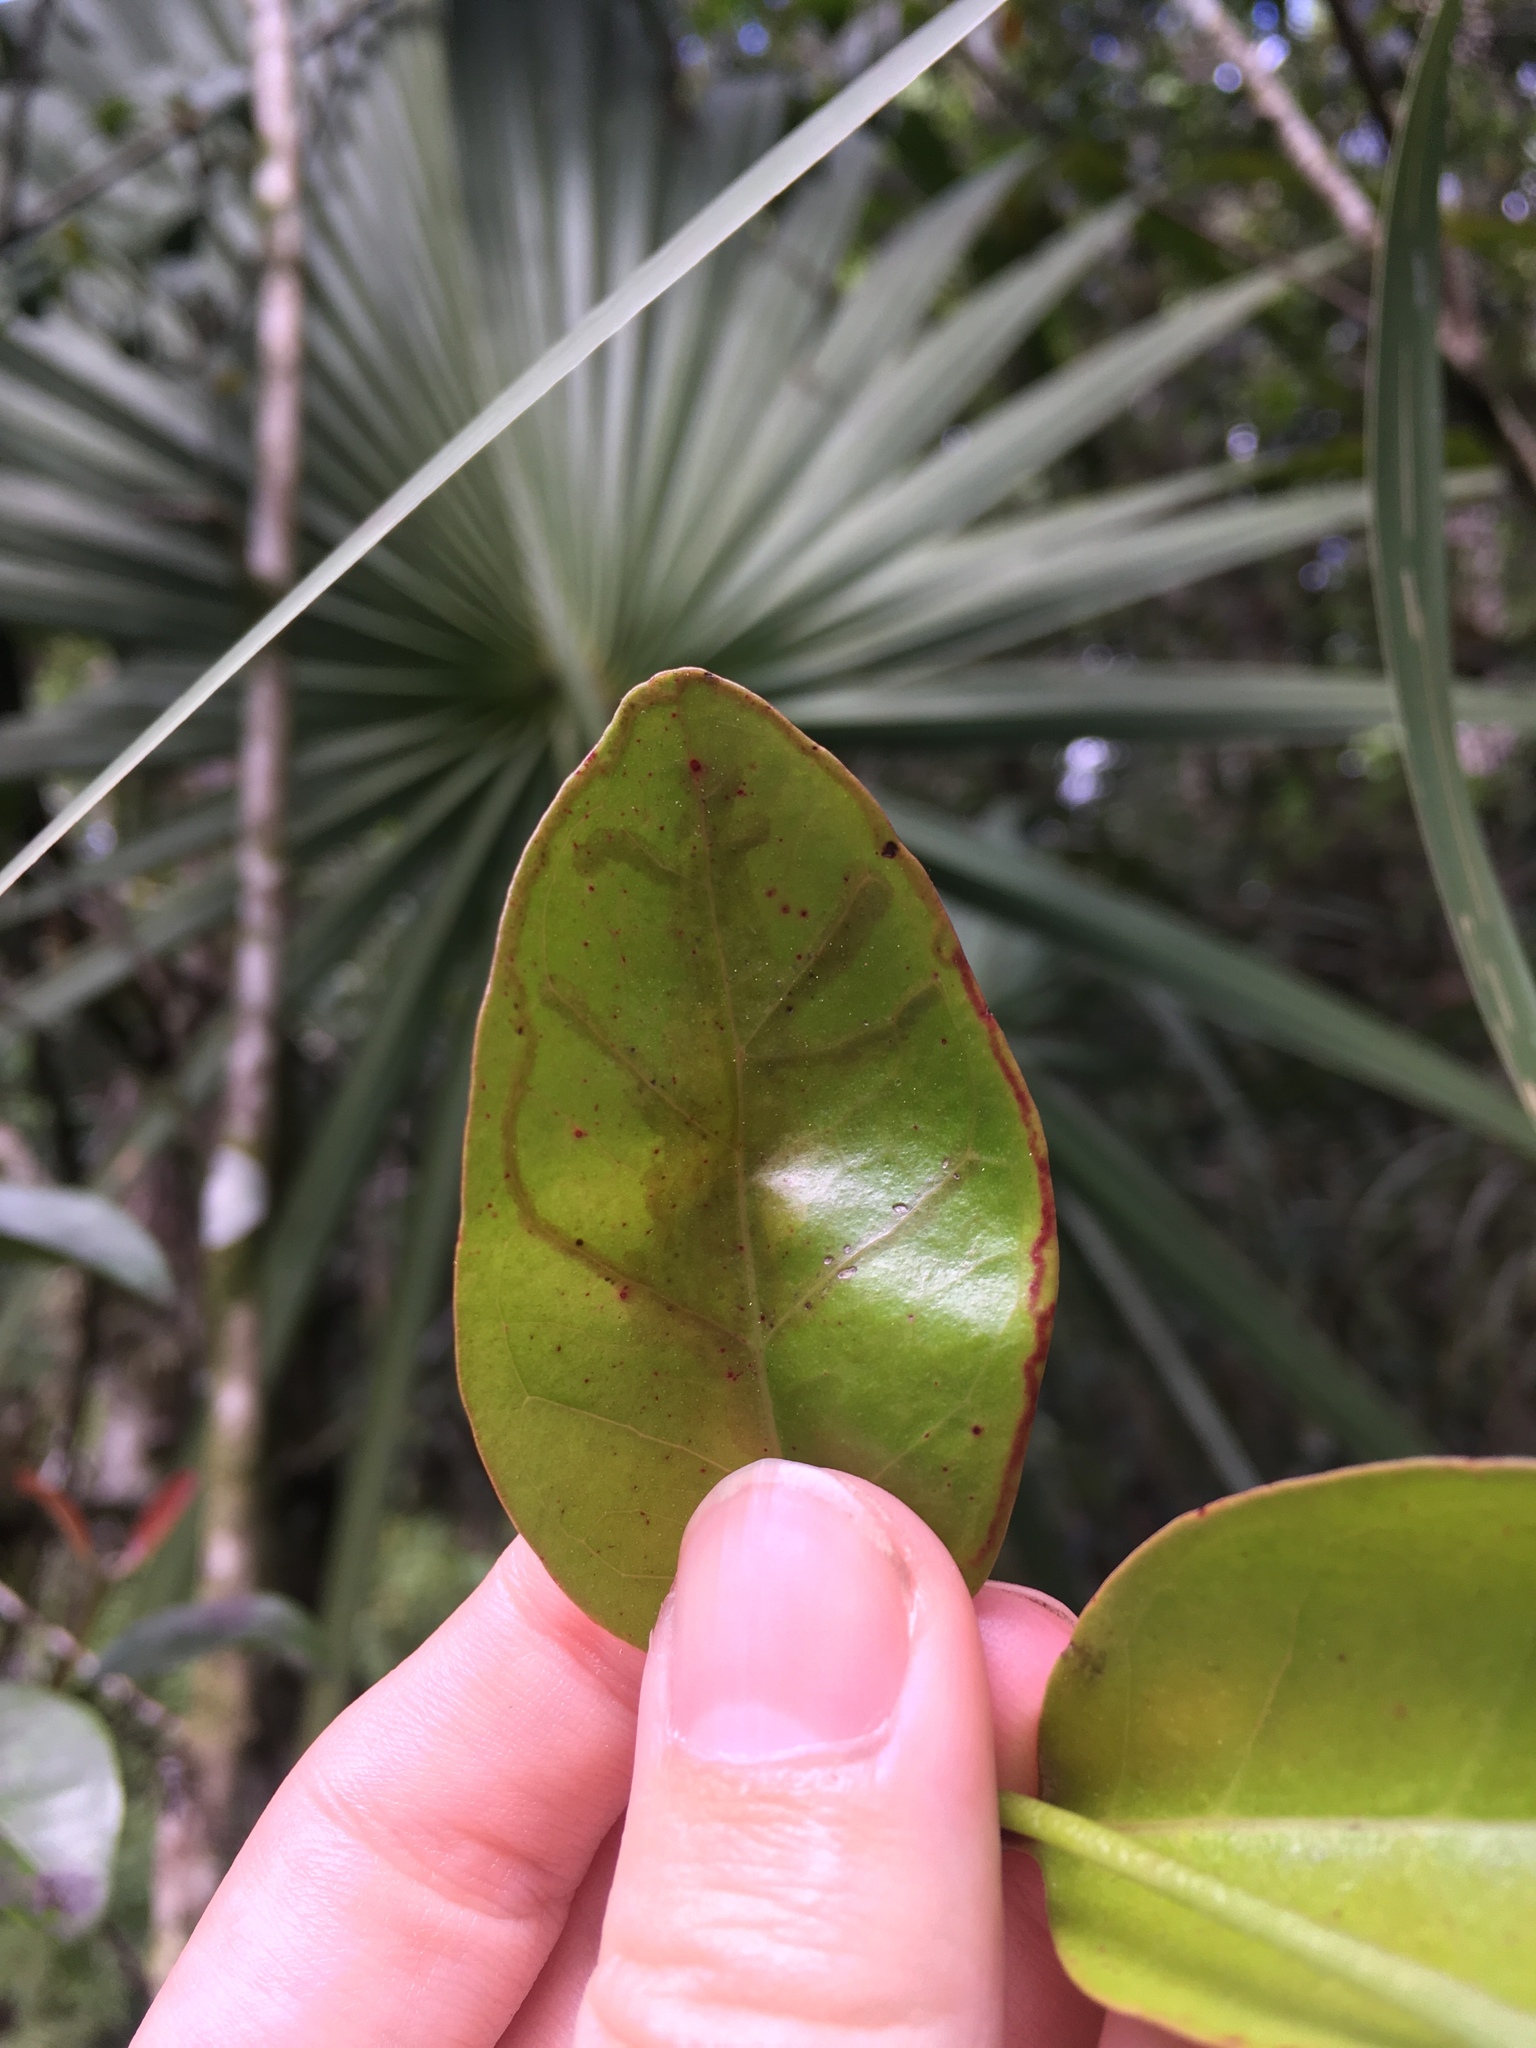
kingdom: Animalia
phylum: Arthropoda
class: Insecta
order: Lepidoptera
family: Gracillariidae
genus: Chilocampyla
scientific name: Chilocampyla dyariella
